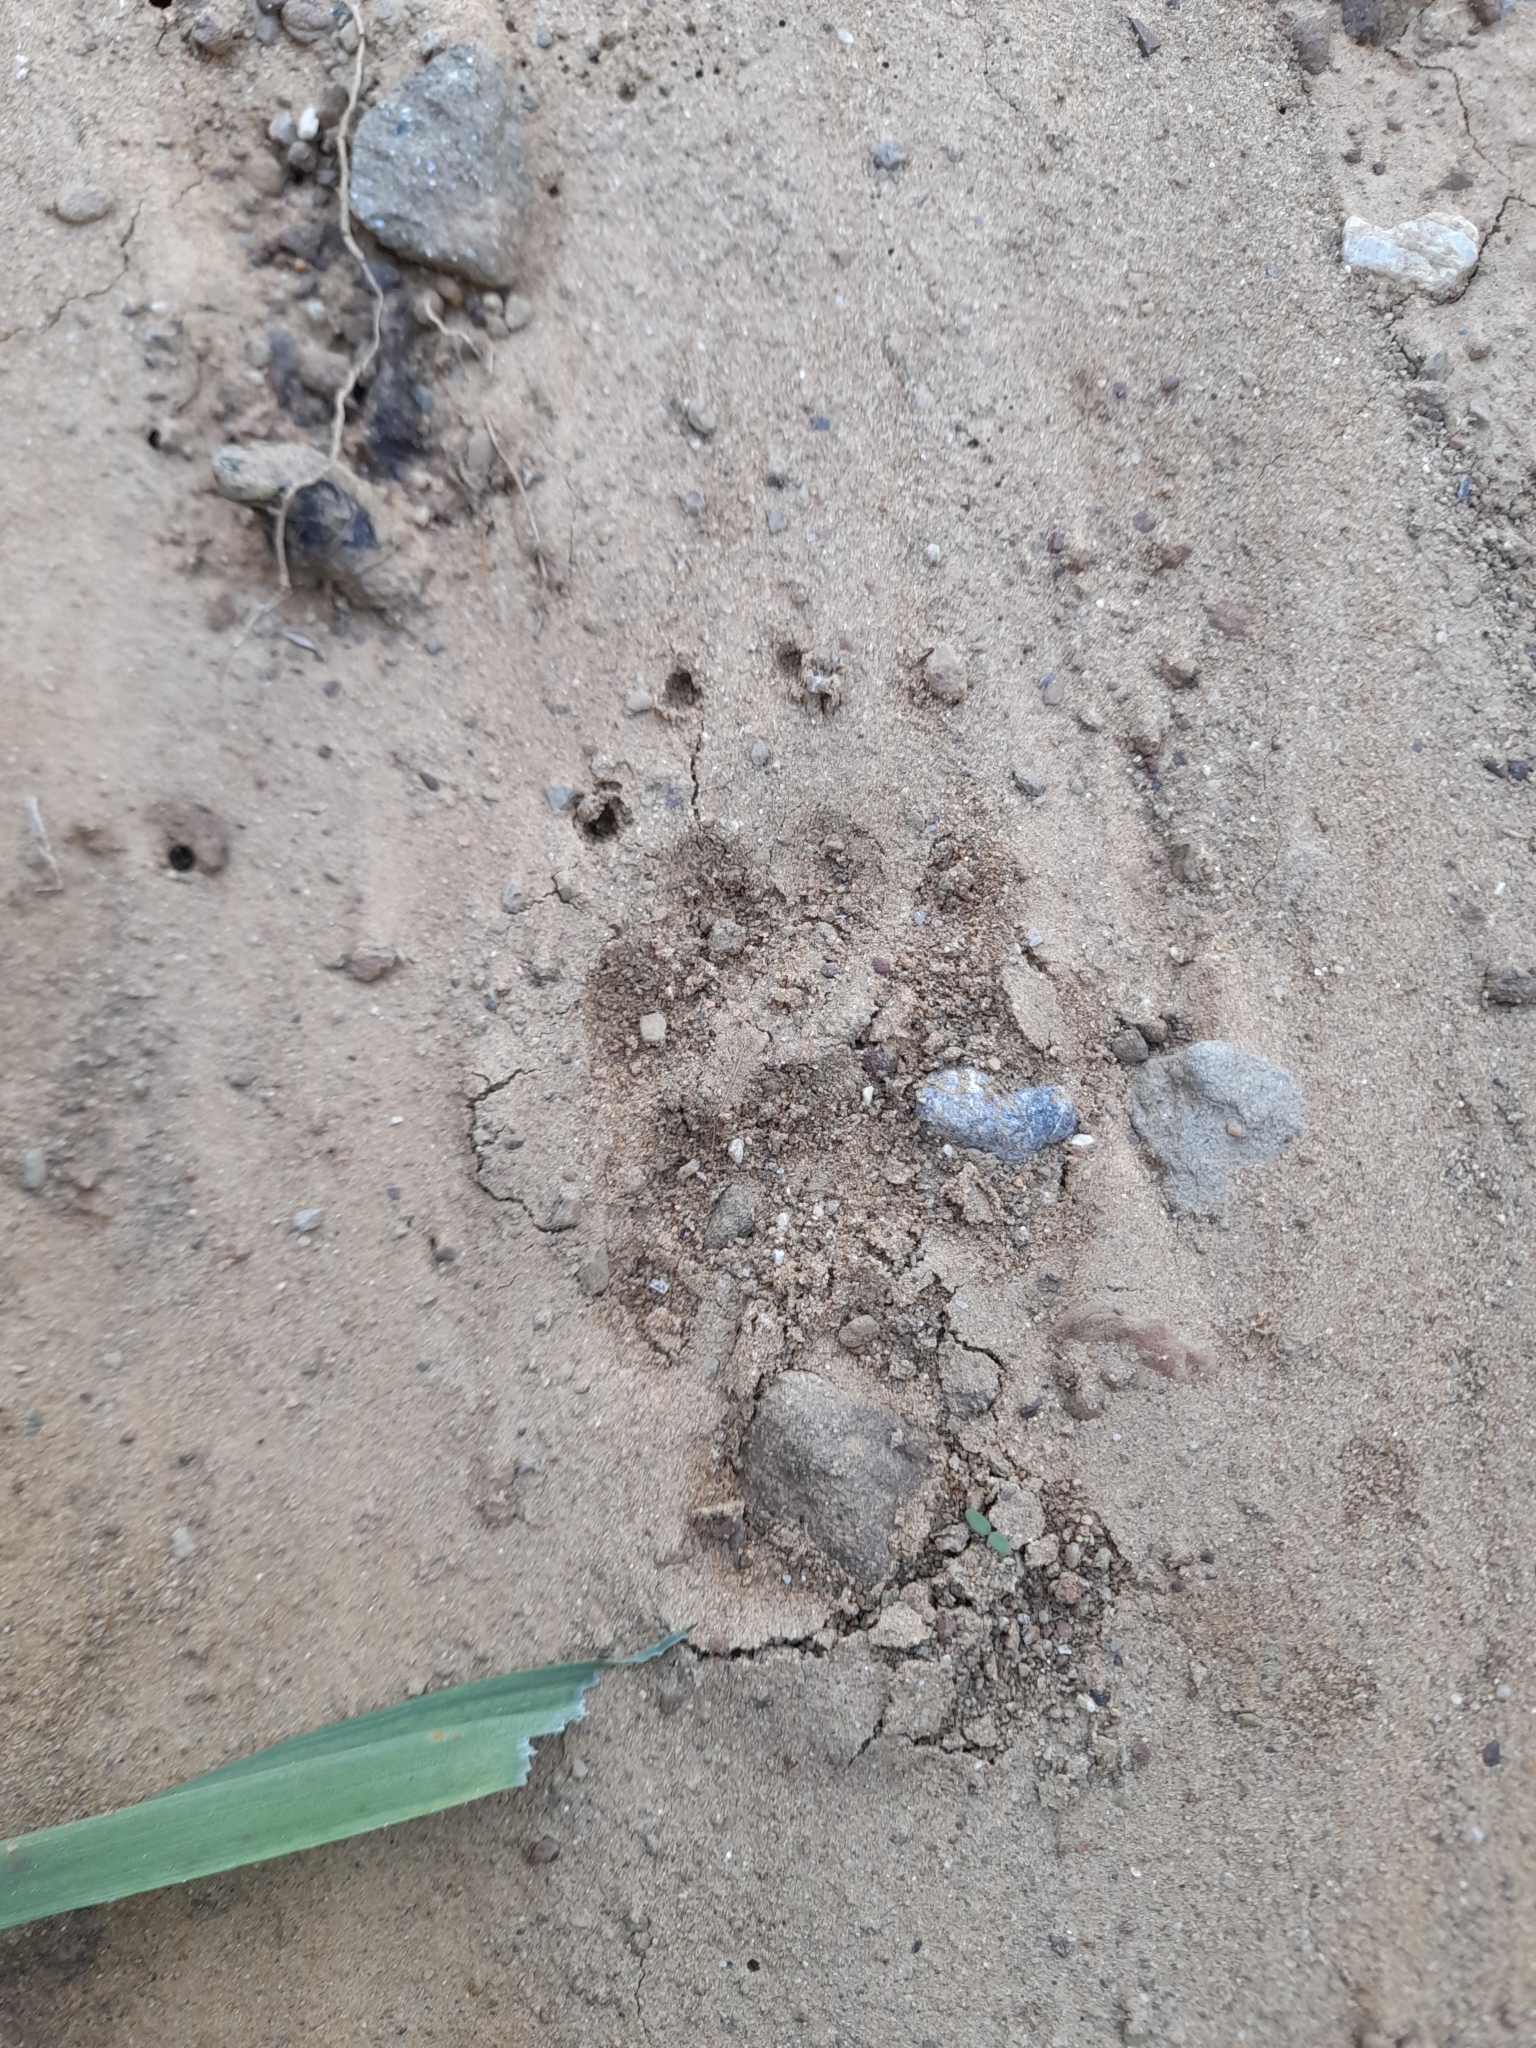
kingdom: Animalia
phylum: Chordata
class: Mammalia
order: Carnivora
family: Mustelidae
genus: Meles
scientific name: Meles meles
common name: Eurasian badger
